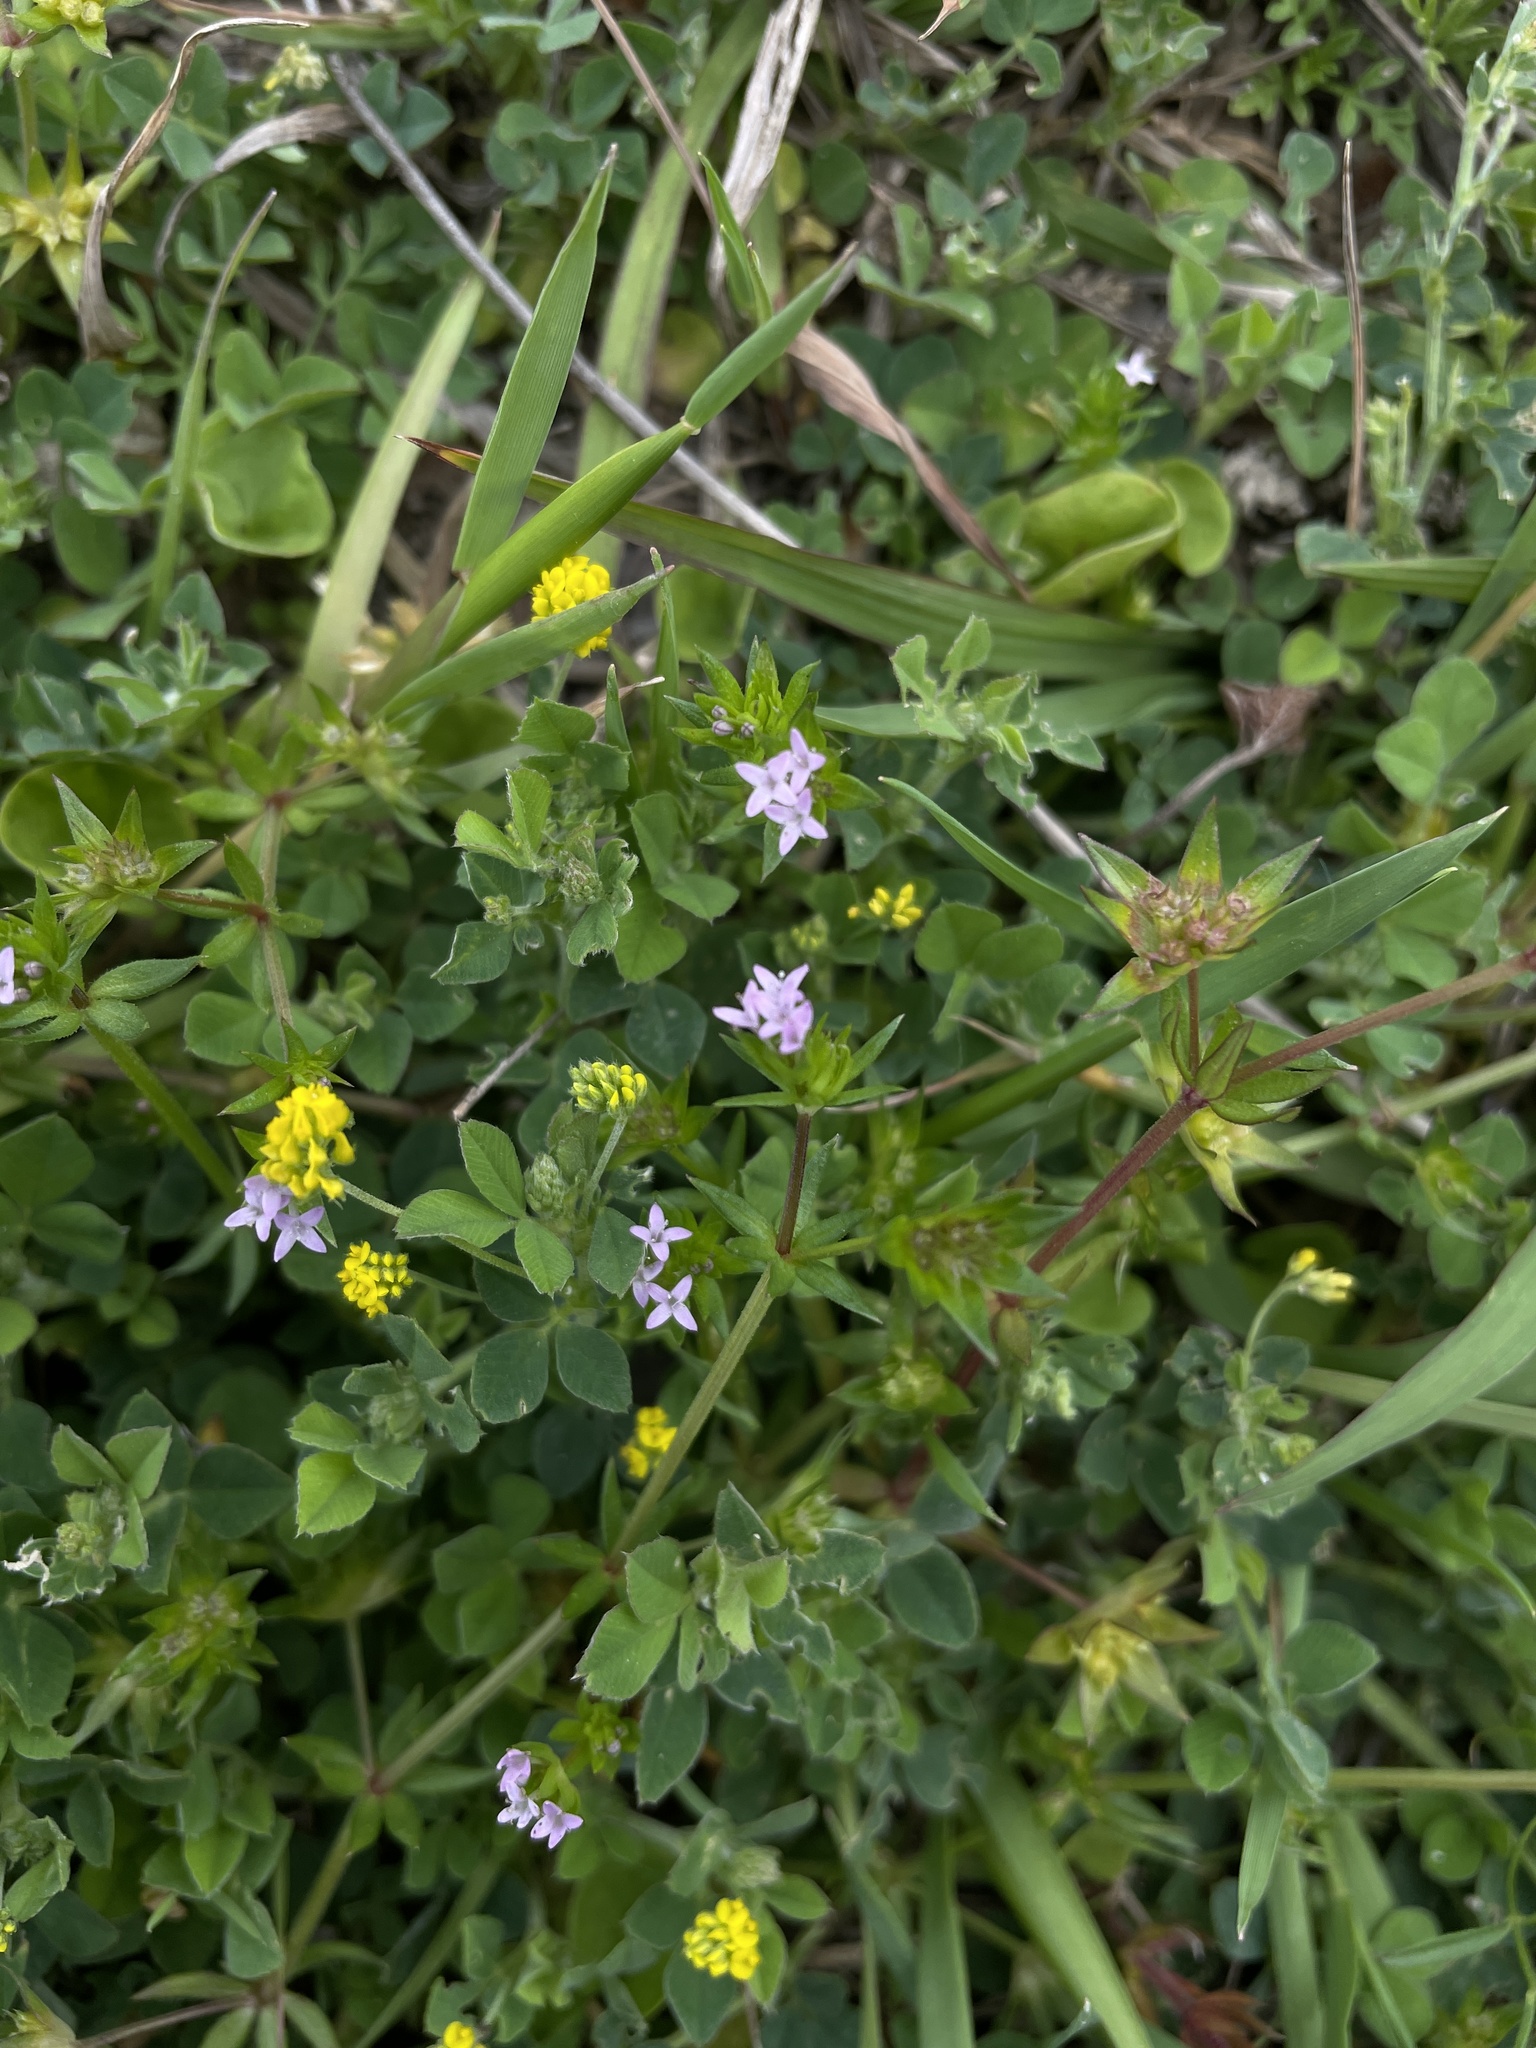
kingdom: Plantae
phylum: Tracheophyta
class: Magnoliopsida
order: Gentianales
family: Rubiaceae
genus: Sherardia
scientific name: Sherardia arvensis
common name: Field madder
